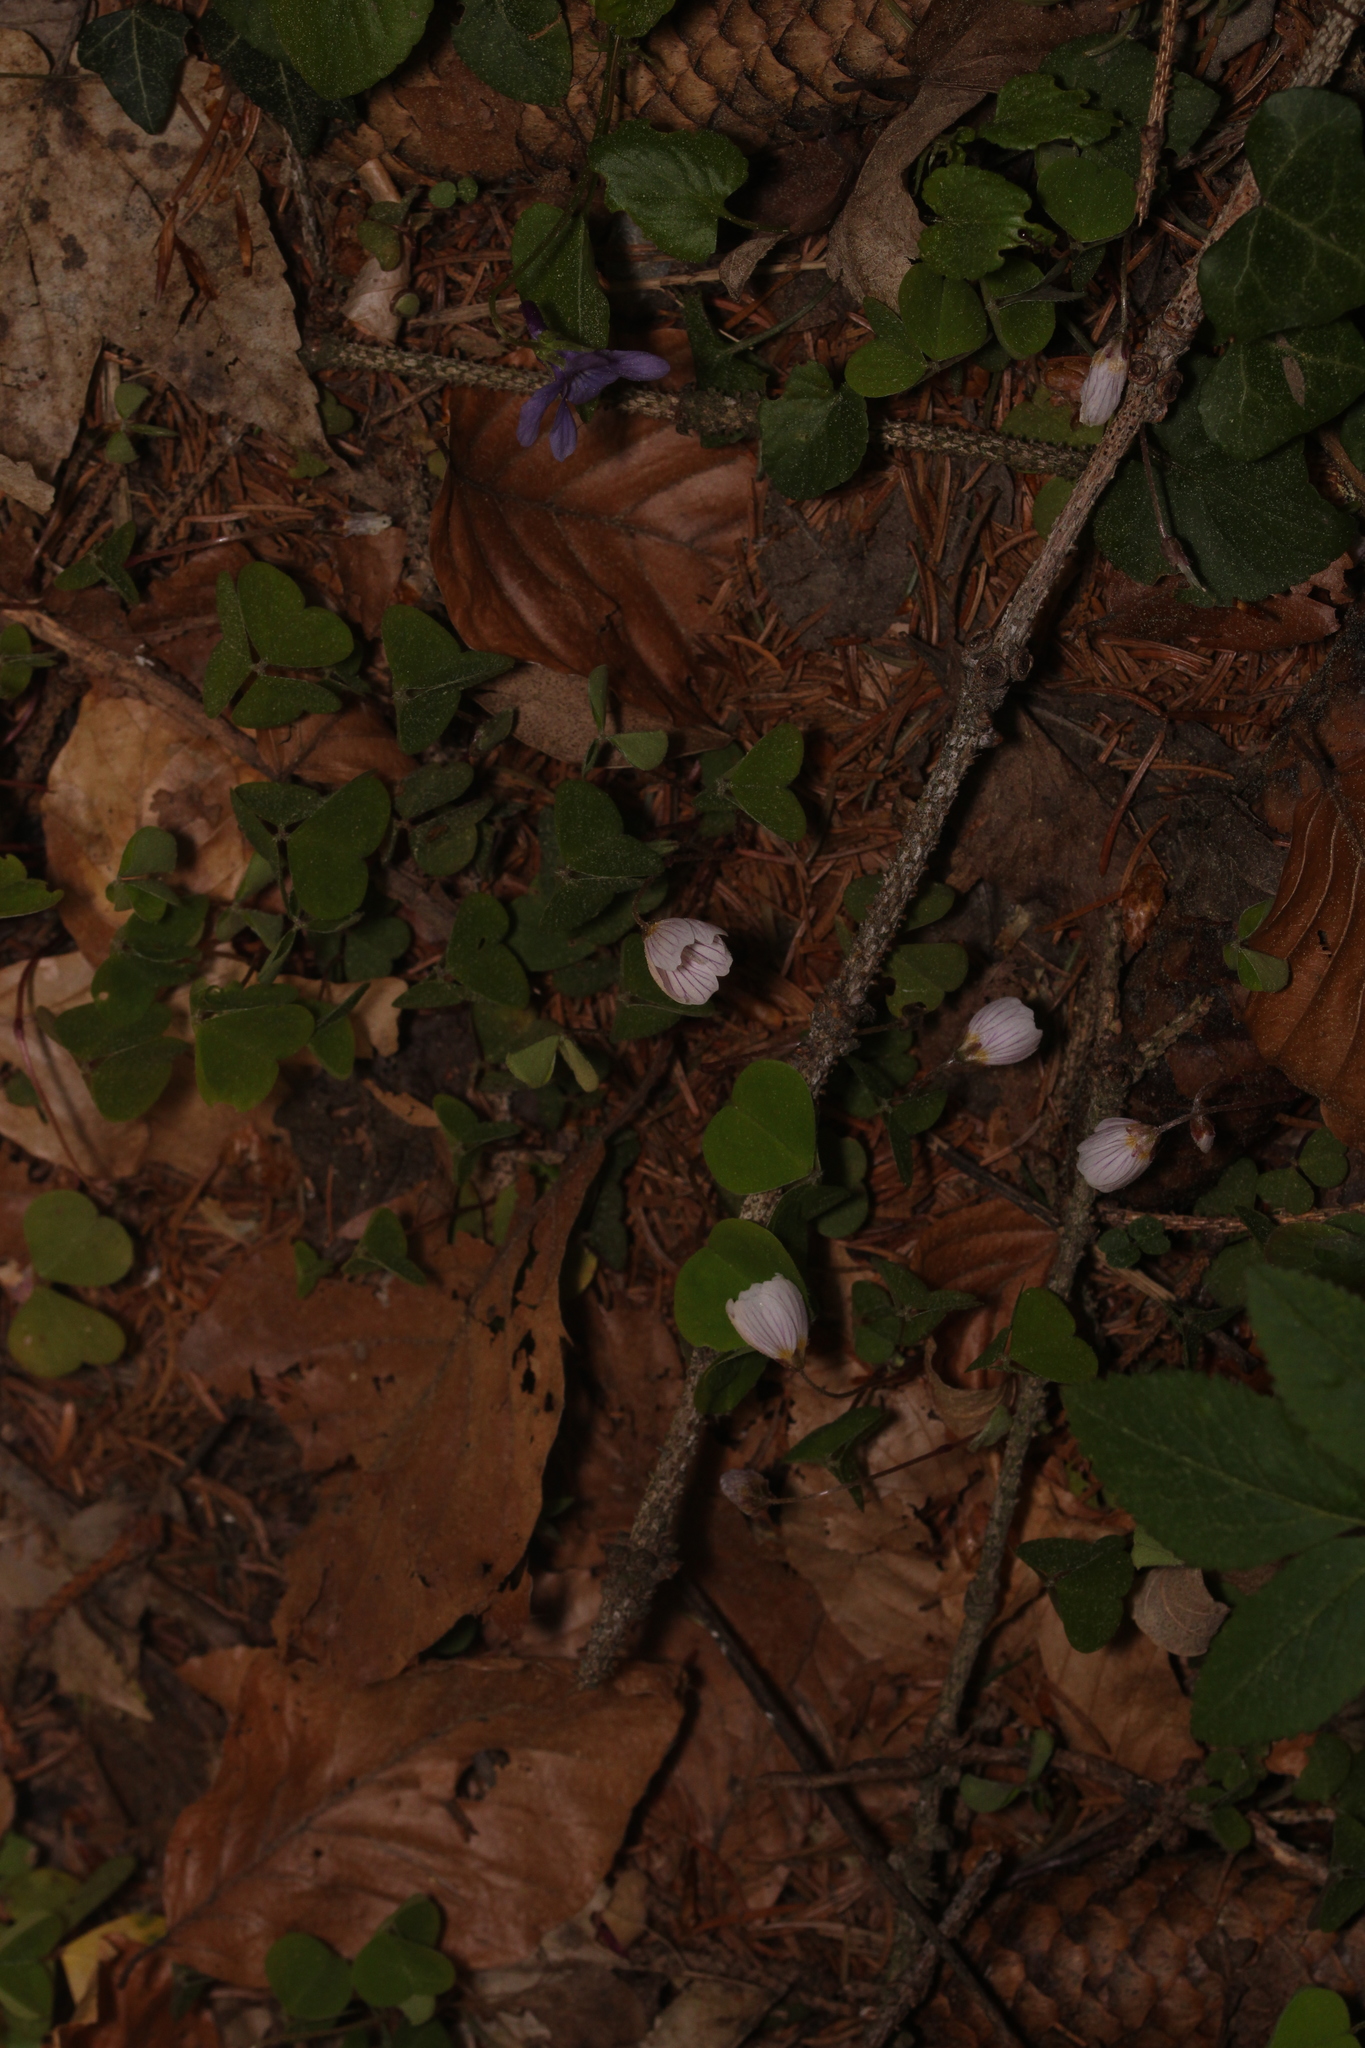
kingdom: Plantae
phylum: Tracheophyta
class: Magnoliopsida
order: Oxalidales
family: Oxalidaceae
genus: Oxalis
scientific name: Oxalis acetosella
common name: Wood-sorrel
